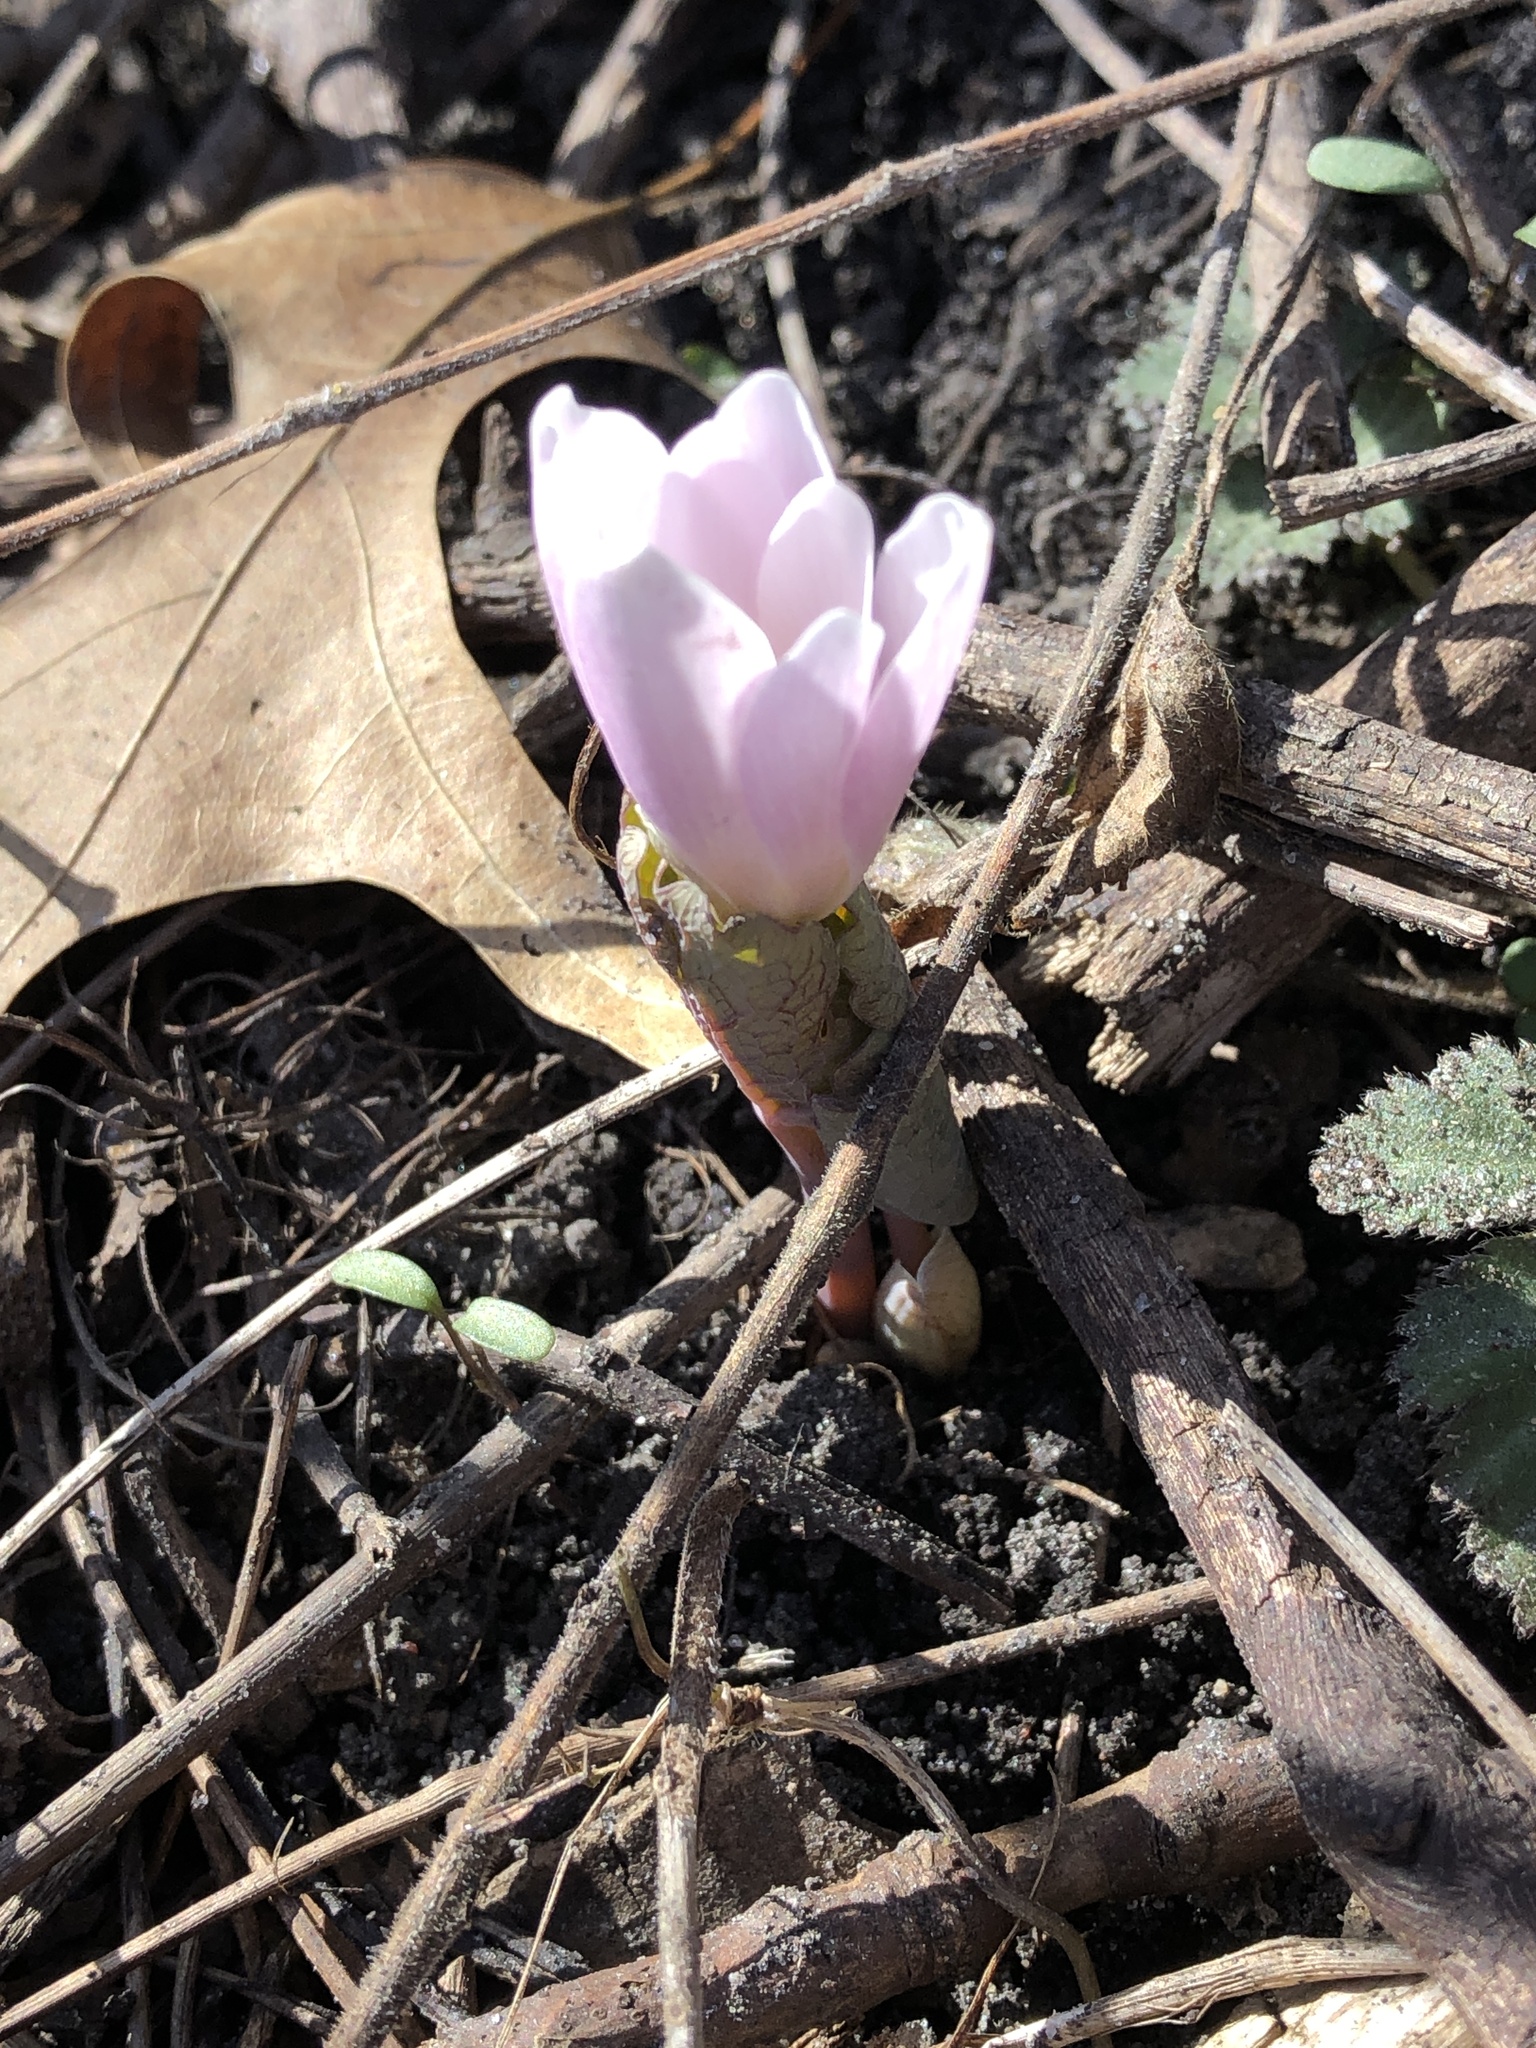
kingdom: Plantae
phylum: Tracheophyta
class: Magnoliopsida
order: Ranunculales
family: Papaveraceae
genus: Sanguinaria
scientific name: Sanguinaria canadensis
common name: Bloodroot
